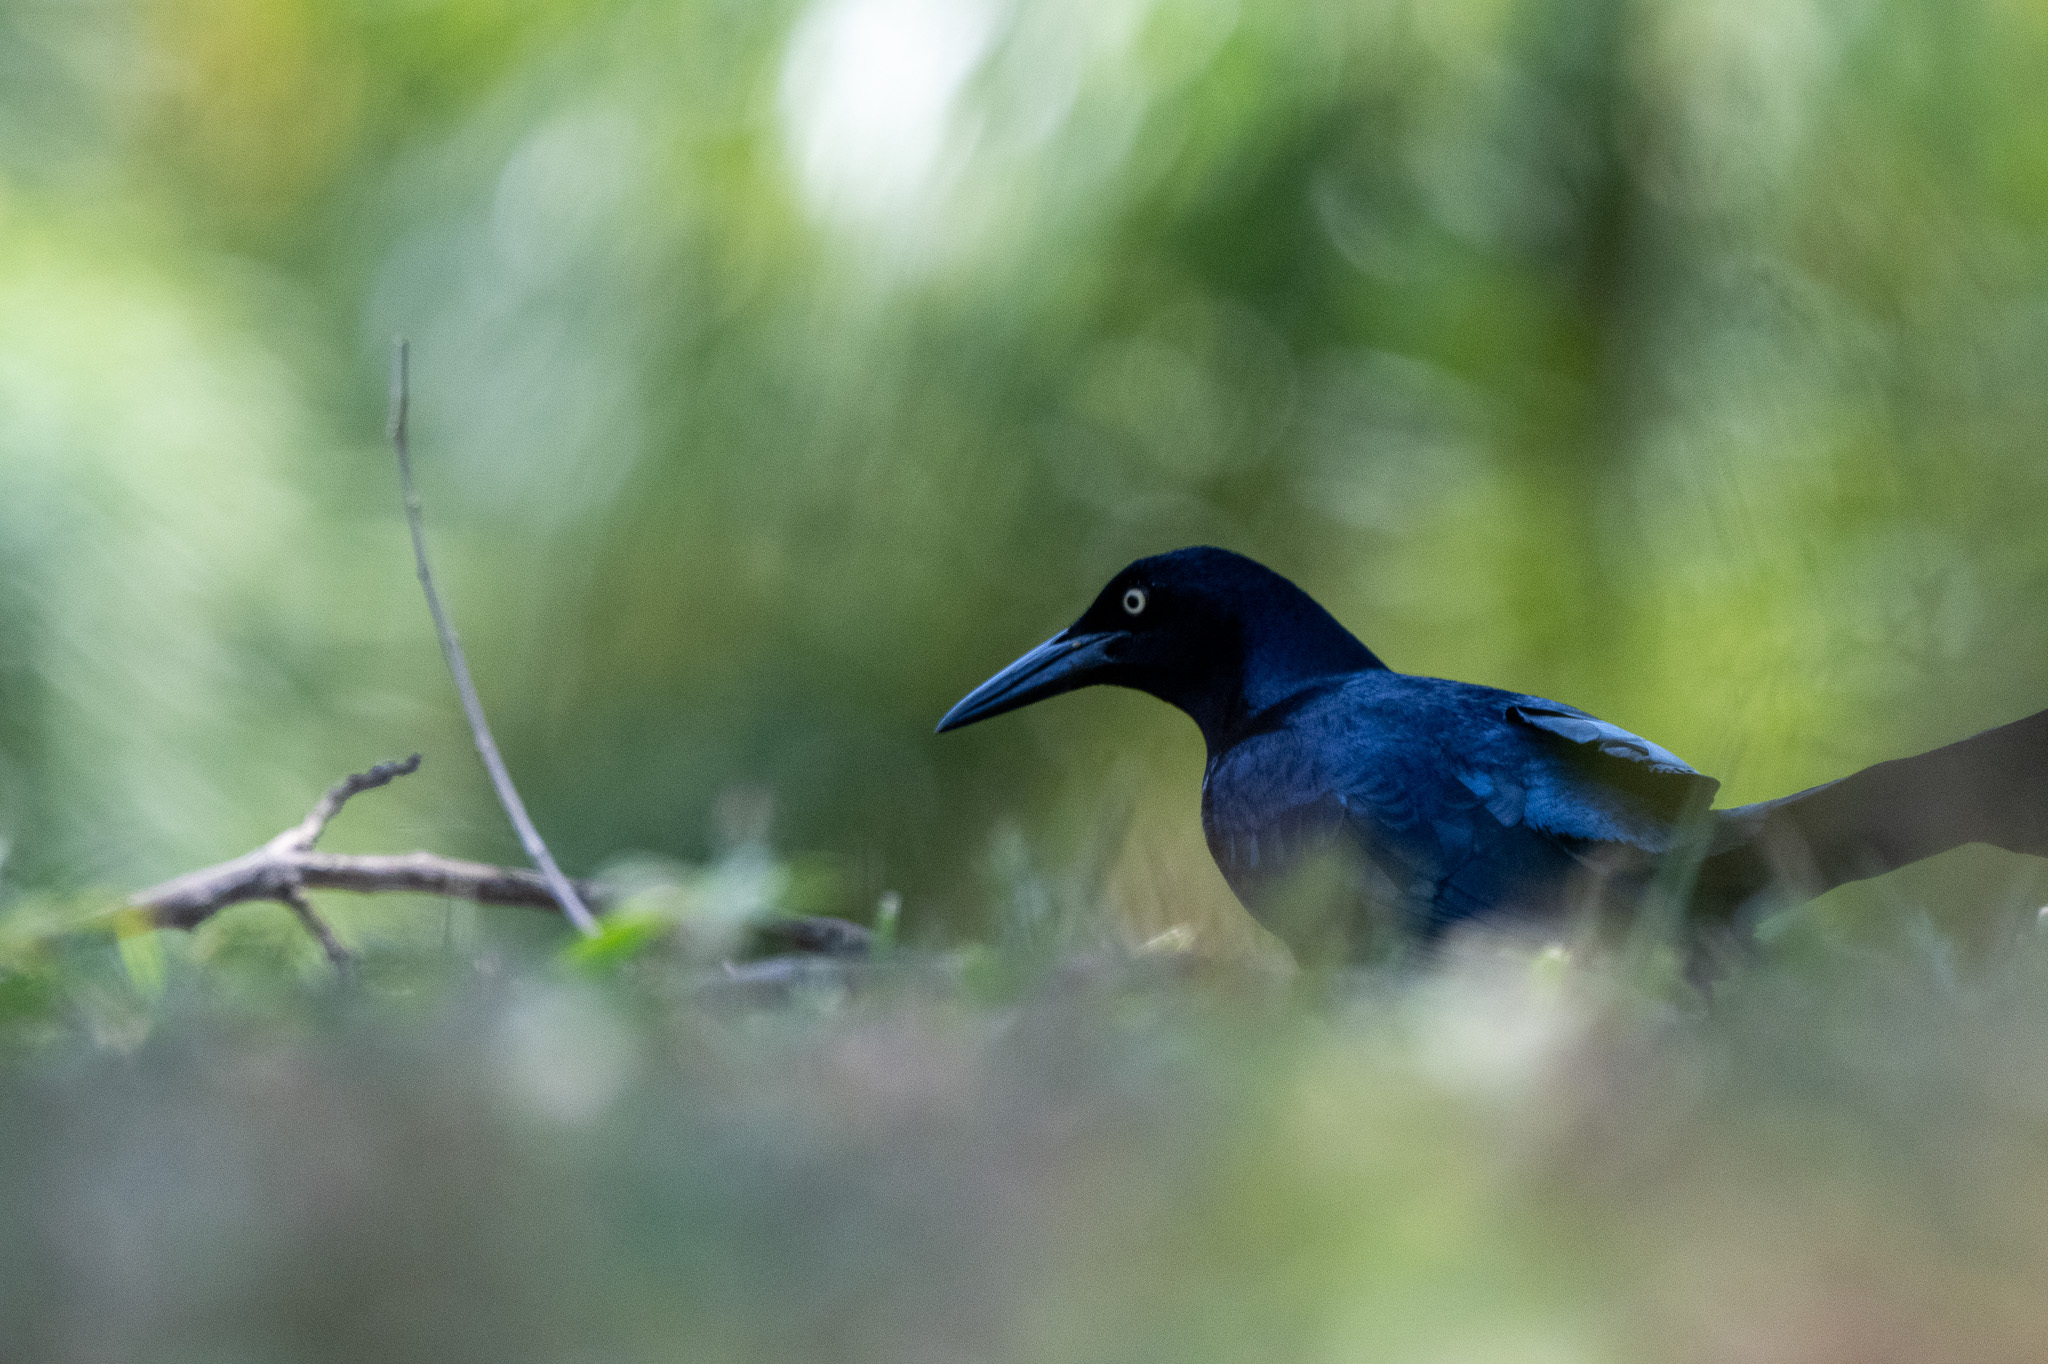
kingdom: Animalia
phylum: Chordata
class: Aves
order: Passeriformes
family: Icteridae
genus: Quiscalus
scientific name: Quiscalus mexicanus
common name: Great-tailed grackle
